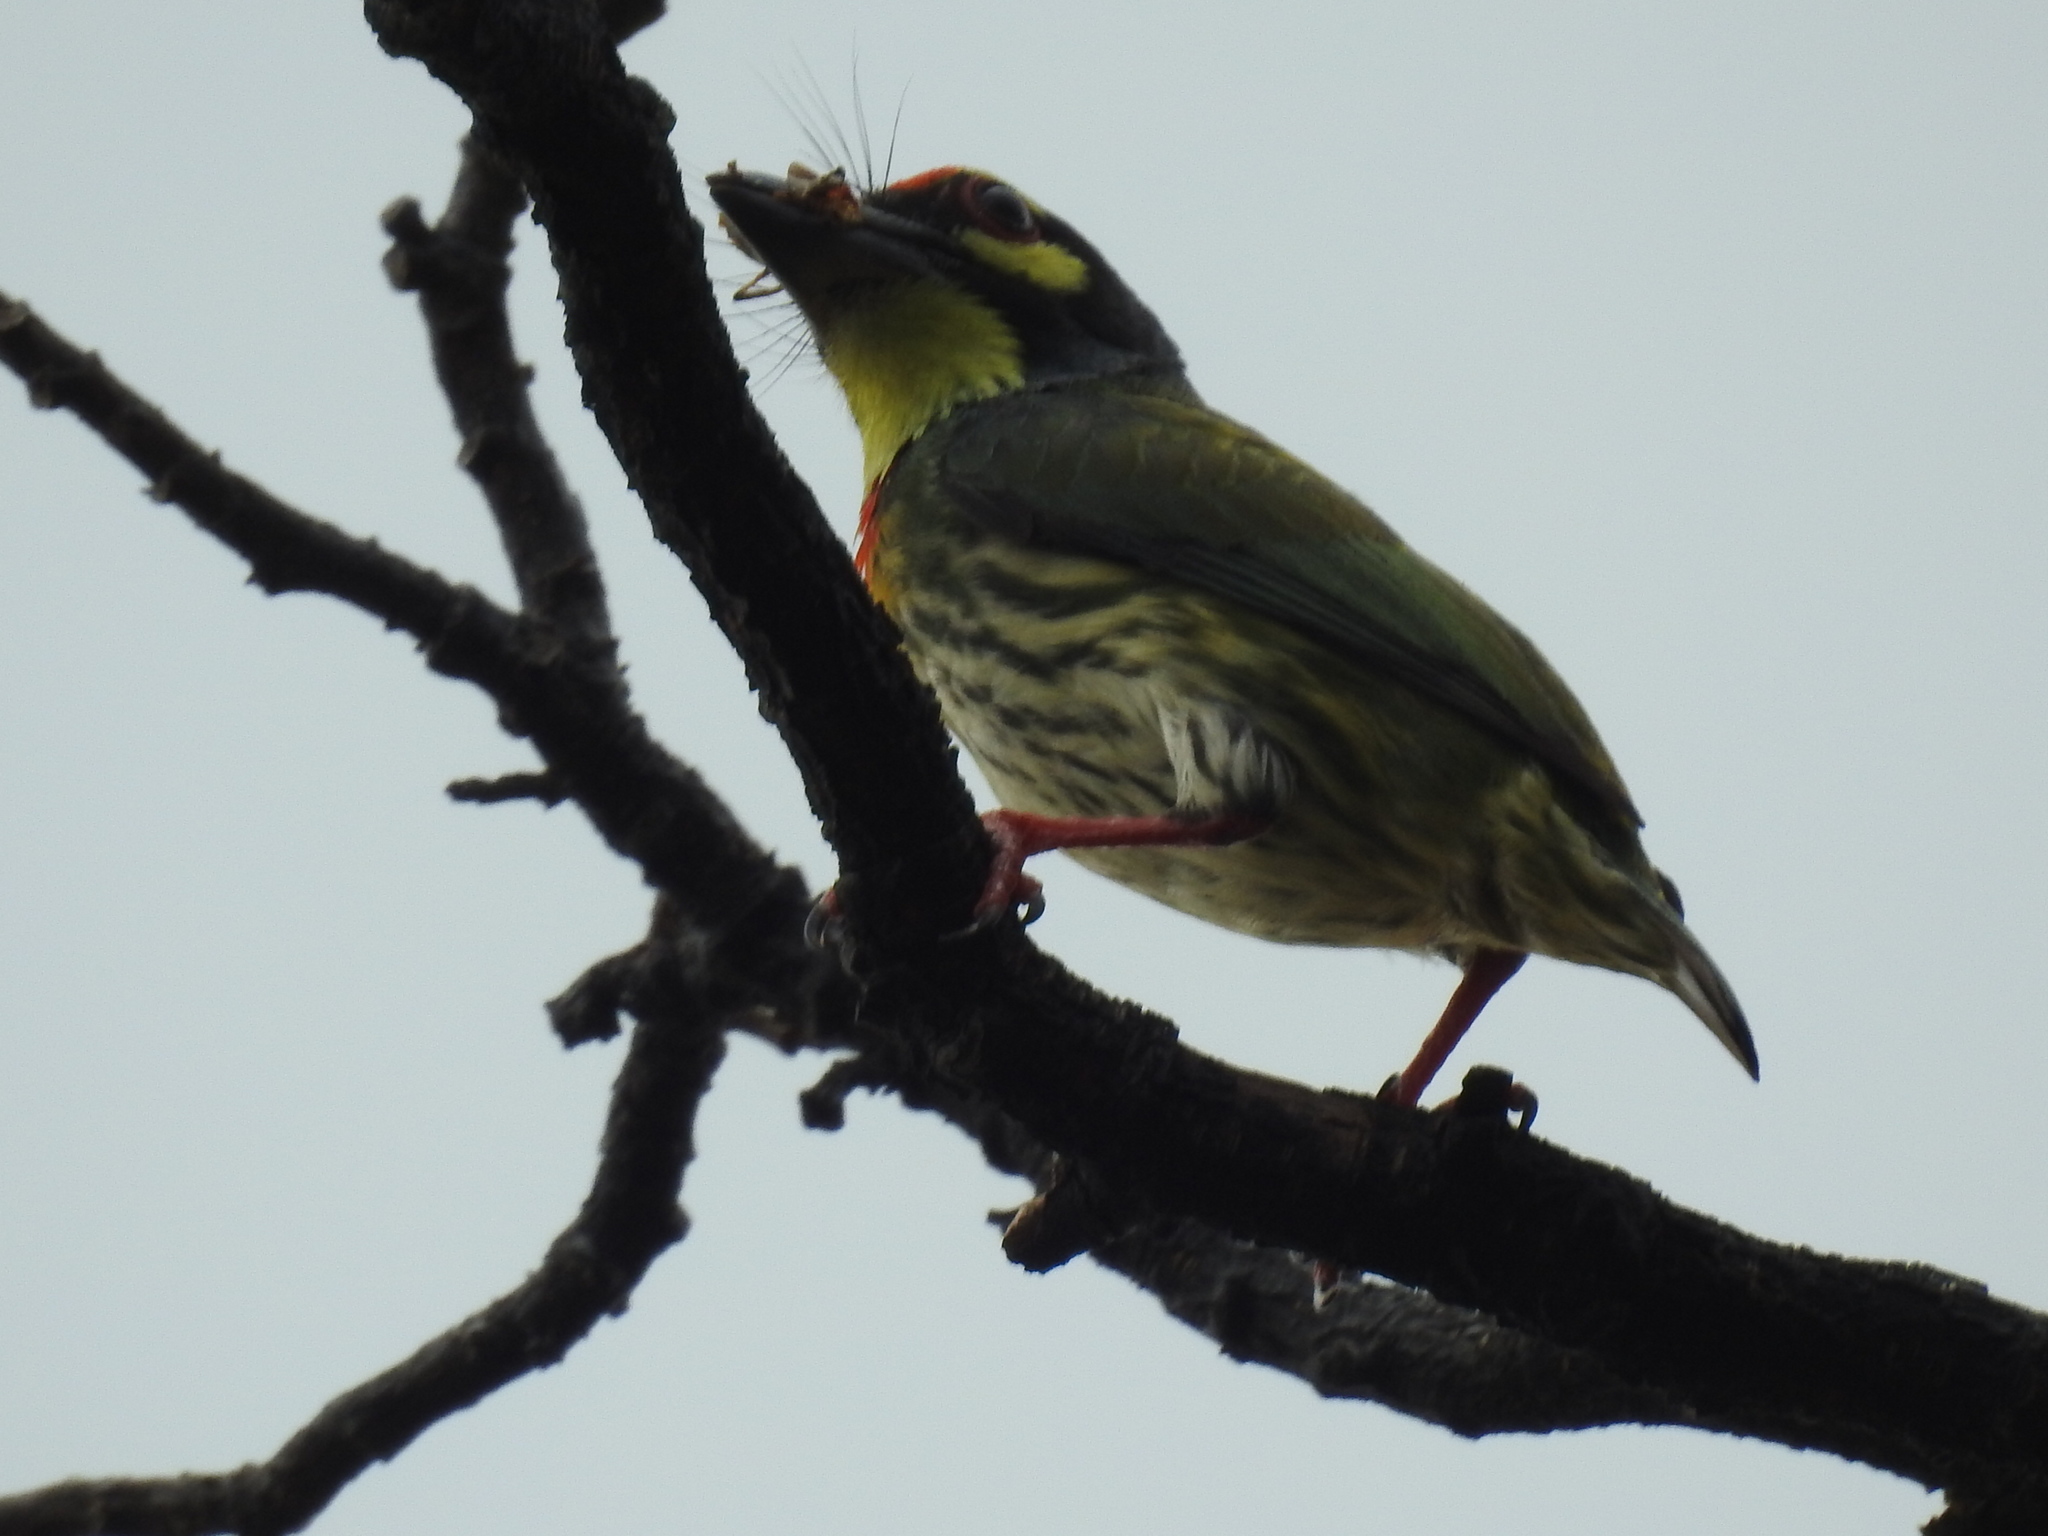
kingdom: Animalia
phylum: Chordata
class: Aves
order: Piciformes
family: Megalaimidae
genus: Psilopogon
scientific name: Psilopogon haemacephalus
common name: Coppersmith barbet
